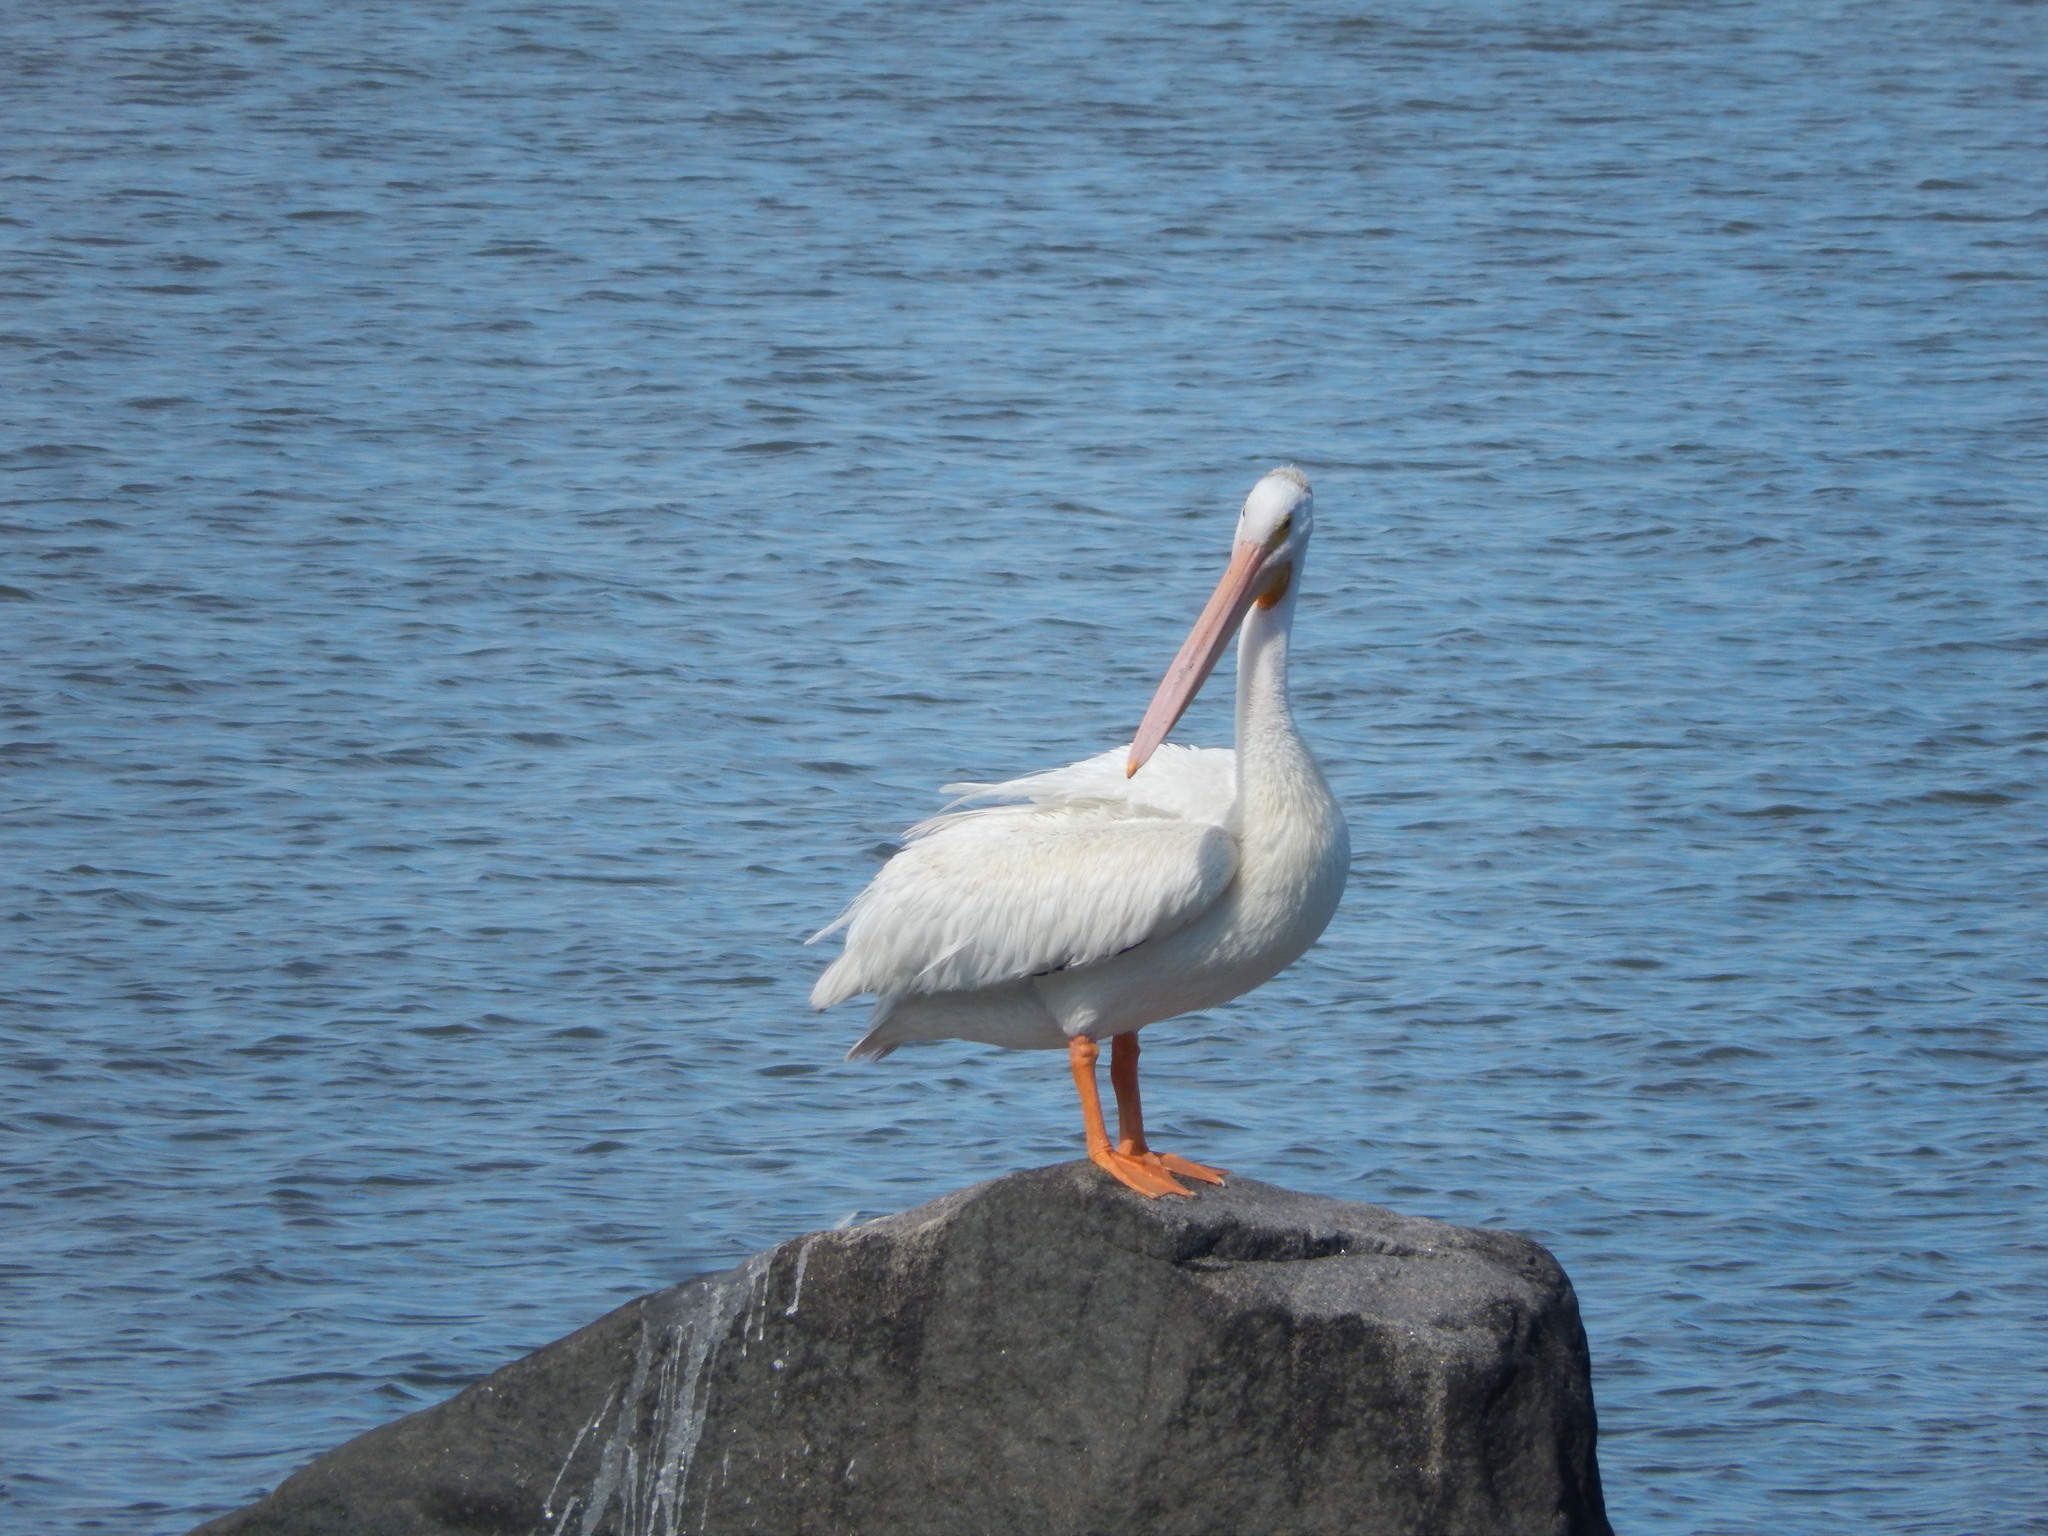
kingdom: Animalia
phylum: Chordata
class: Aves
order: Pelecaniformes
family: Pelecanidae
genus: Pelecanus
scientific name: Pelecanus erythrorhynchos
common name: American white pelican
